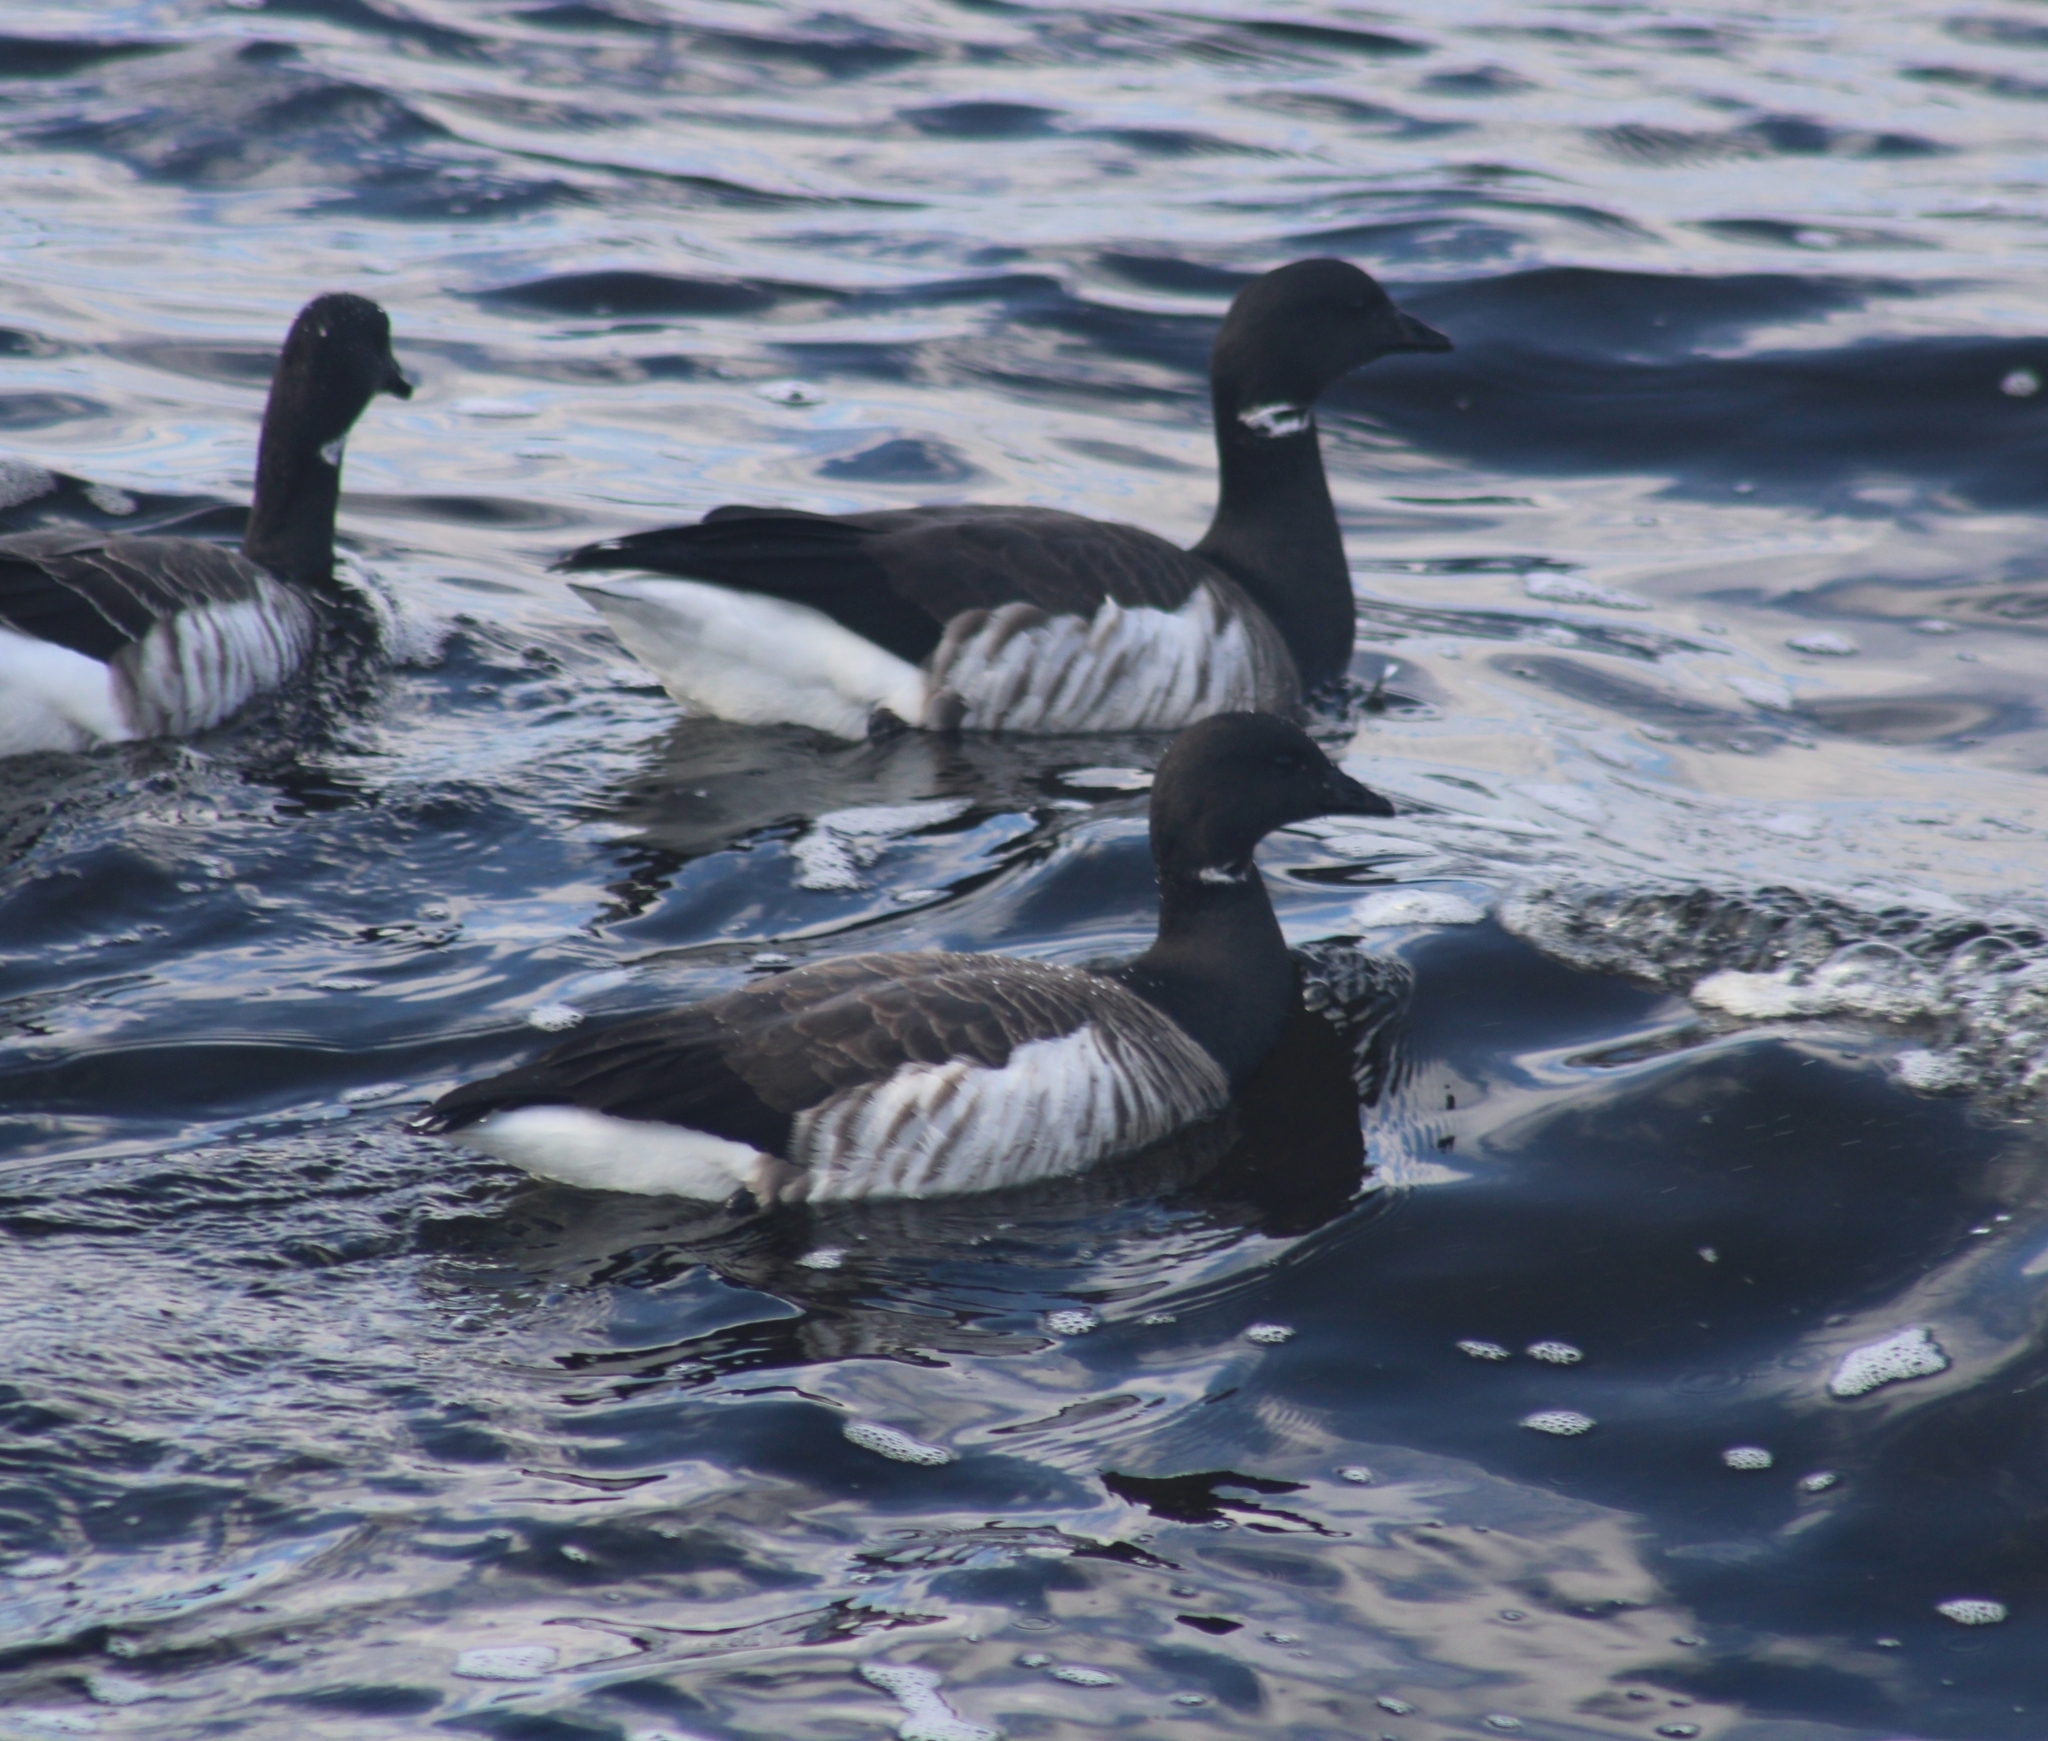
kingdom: Animalia
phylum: Chordata
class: Aves
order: Anseriformes
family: Anatidae
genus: Branta
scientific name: Branta bernicla
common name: Brant goose
